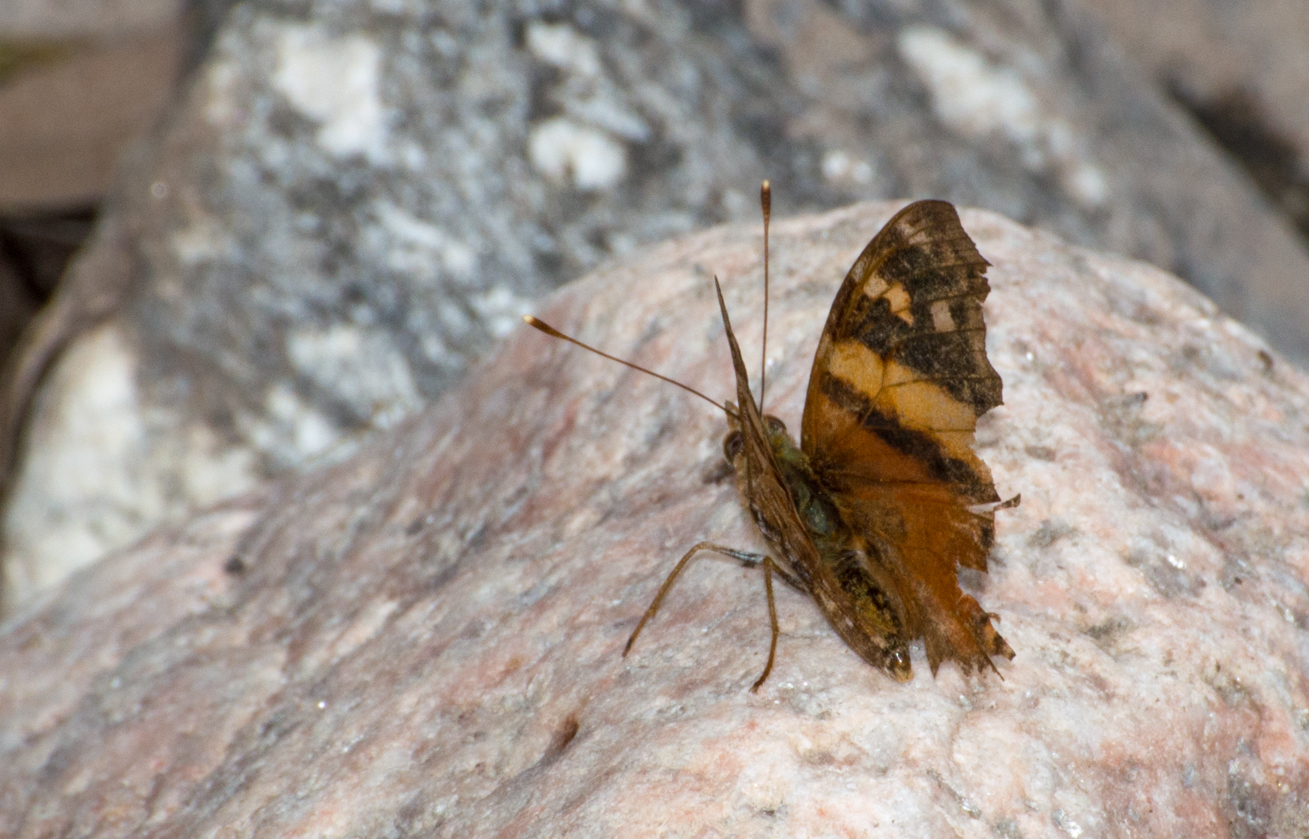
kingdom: Animalia
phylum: Arthropoda
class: Insecta
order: Lepidoptera
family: Nymphalidae
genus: Hypanartia
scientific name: Hypanartia bella
